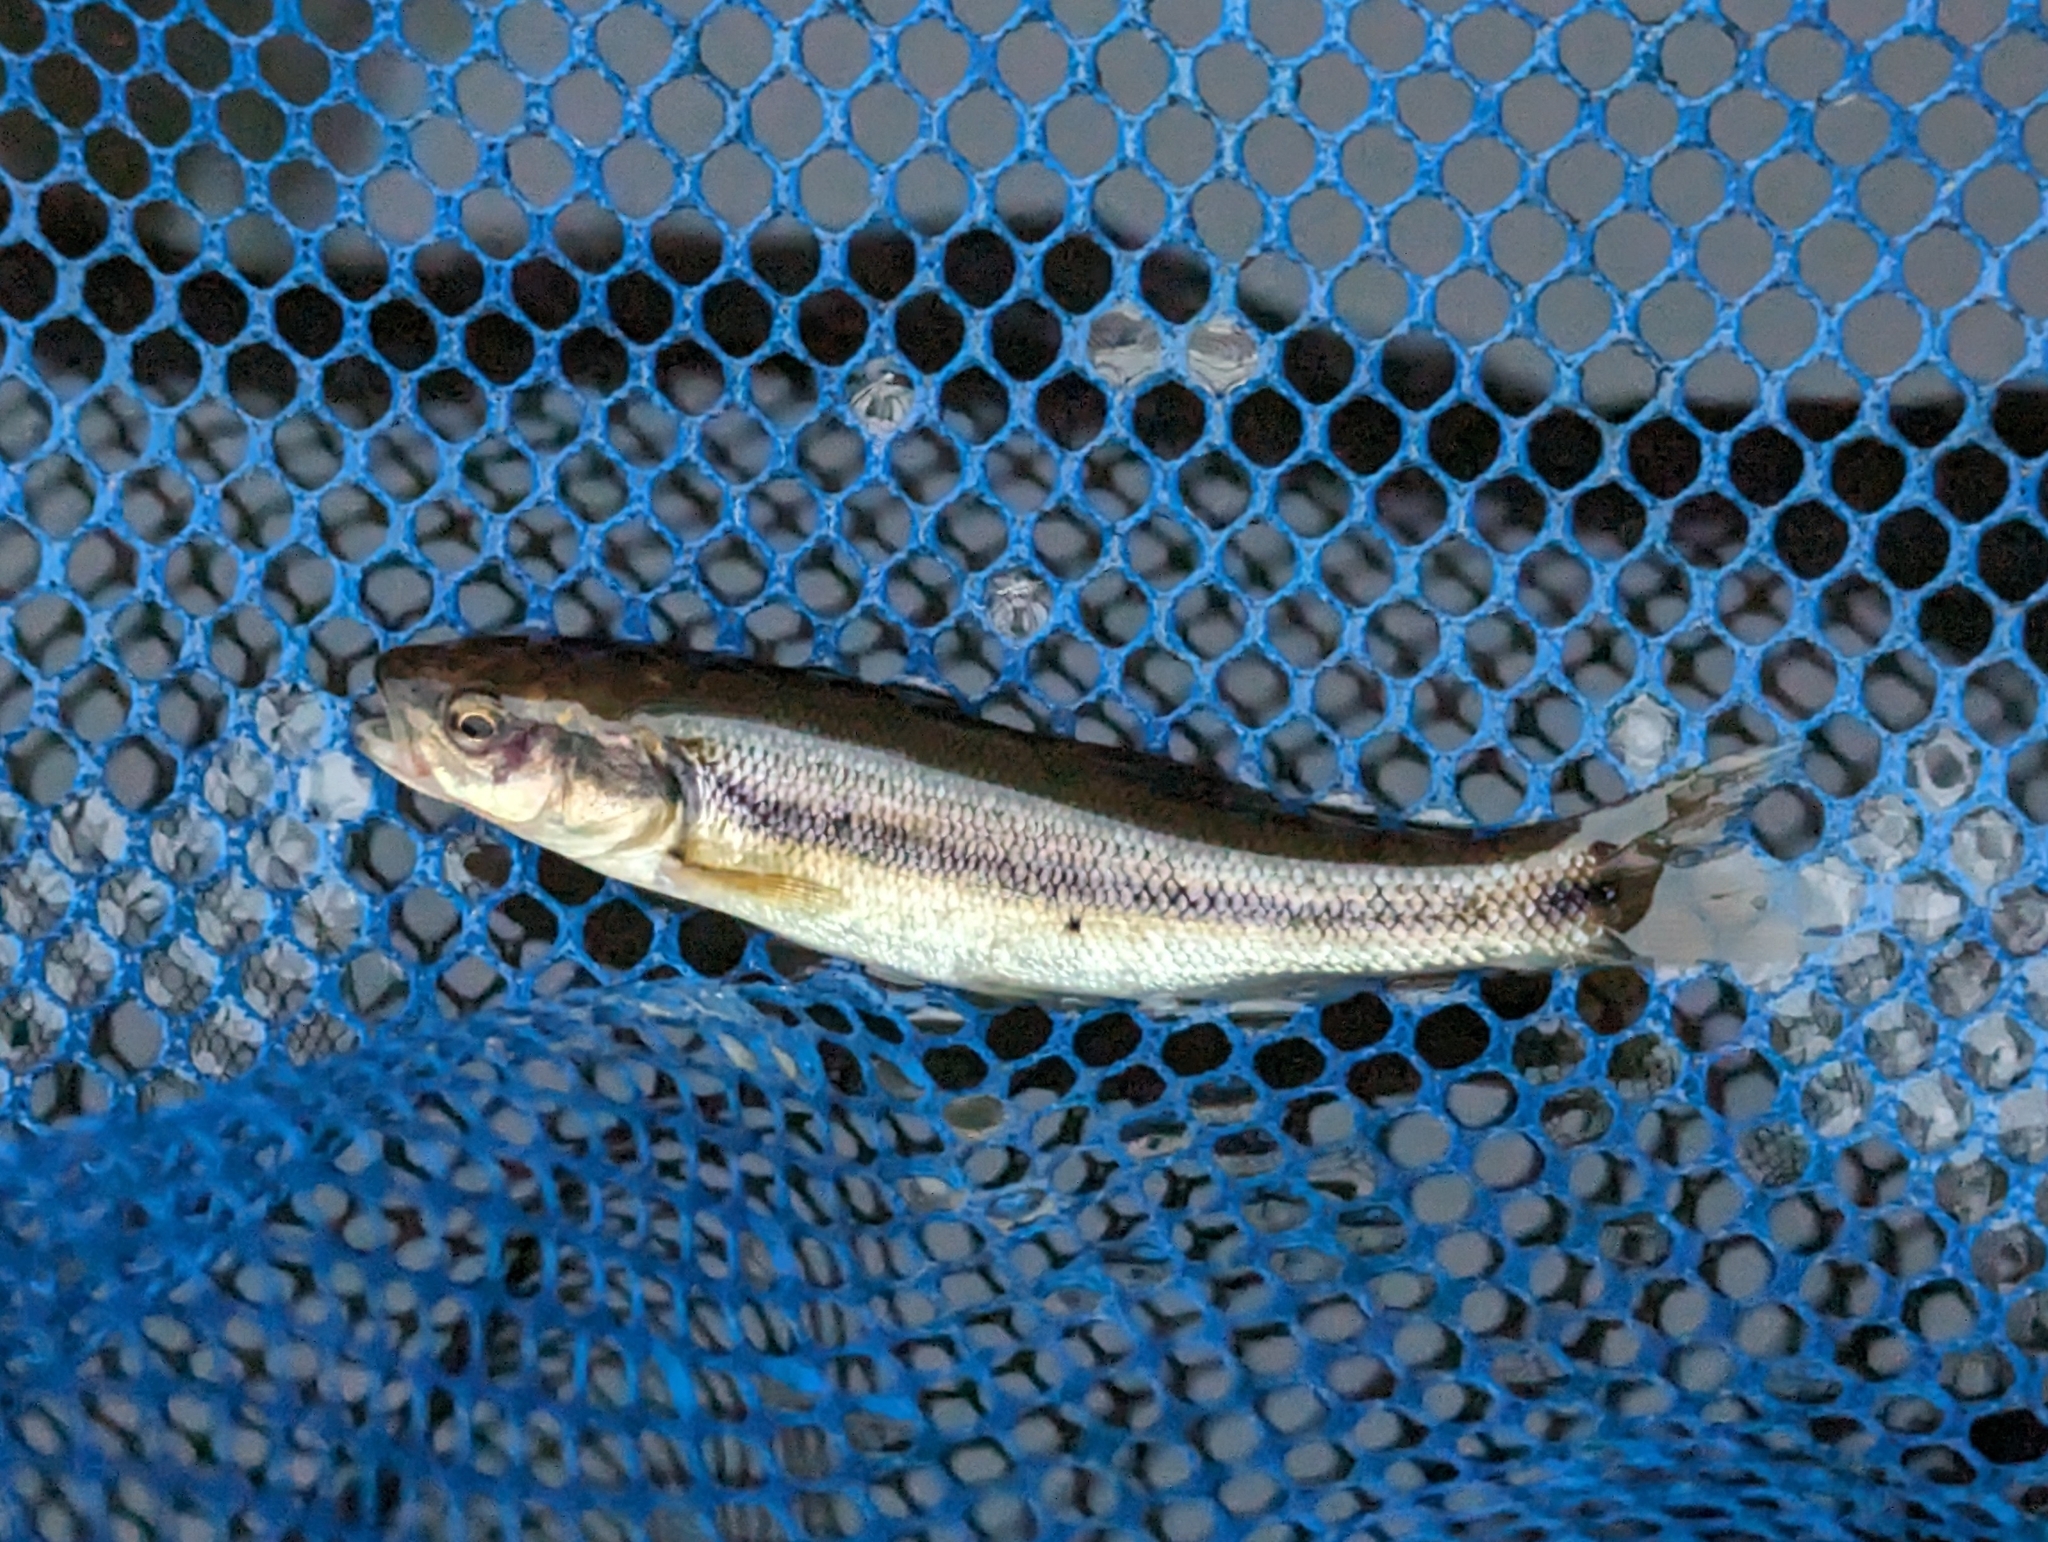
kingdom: Animalia
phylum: Chordata
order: Cypriniformes
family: Cyprinidae
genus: Semotilus
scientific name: Semotilus atromaculatus
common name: Creek chub
